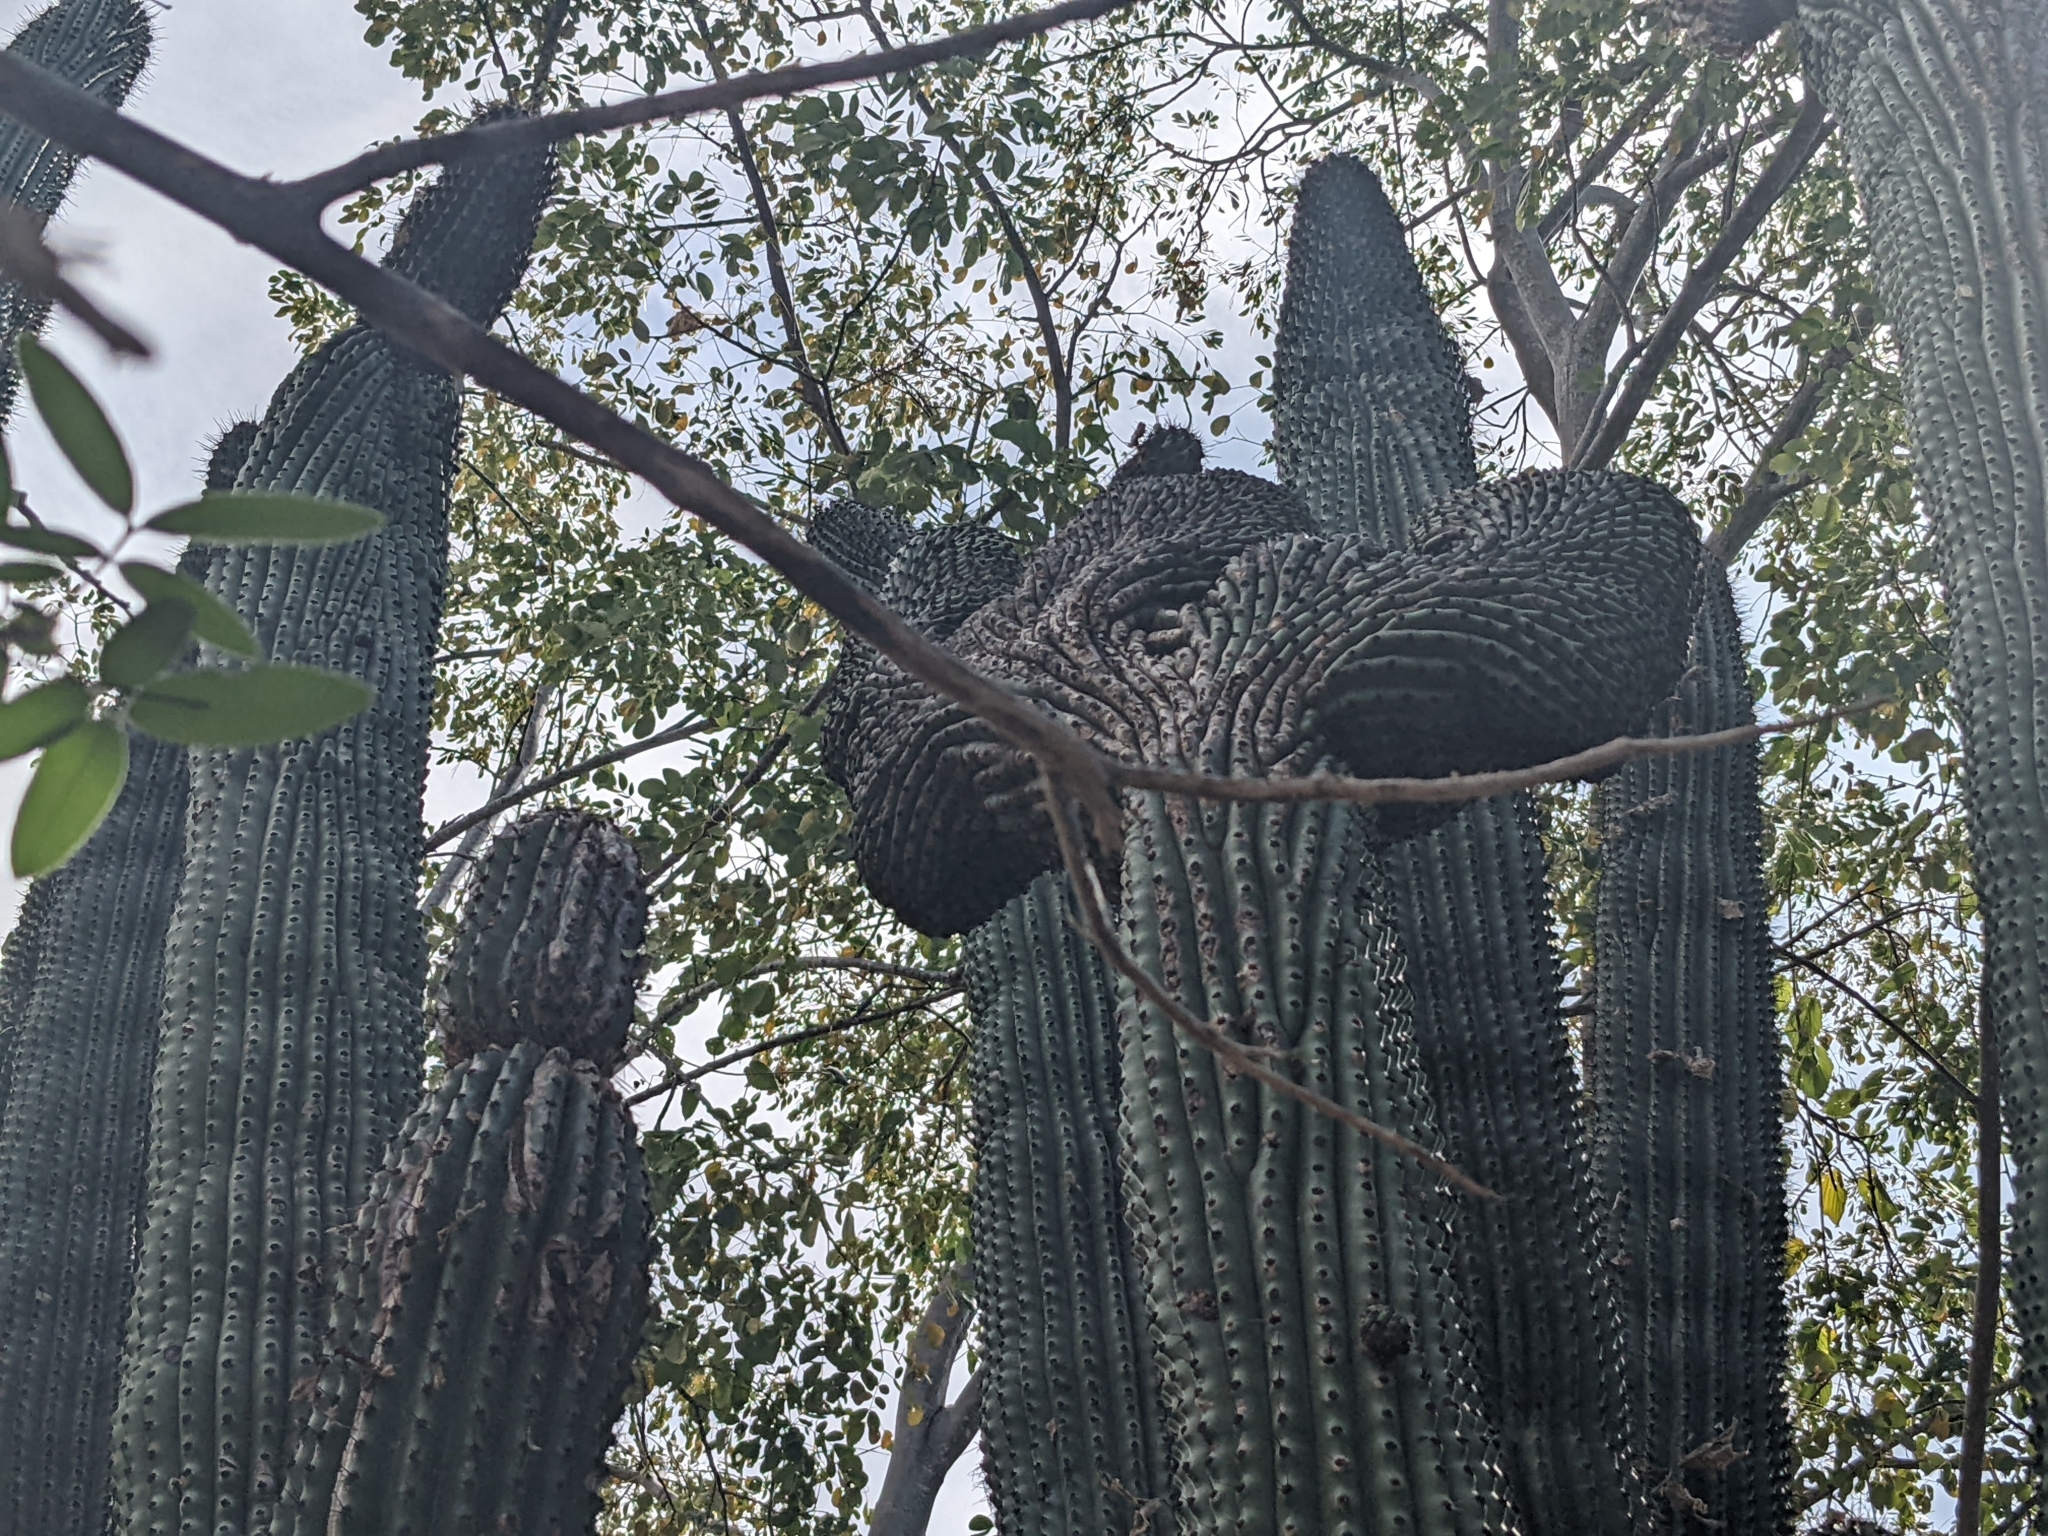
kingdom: Plantae
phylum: Tracheophyta
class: Magnoliopsida
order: Caryophyllales
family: Cactaceae
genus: Stenocereus
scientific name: Stenocereus thurberi
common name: Organ pipe cactus
